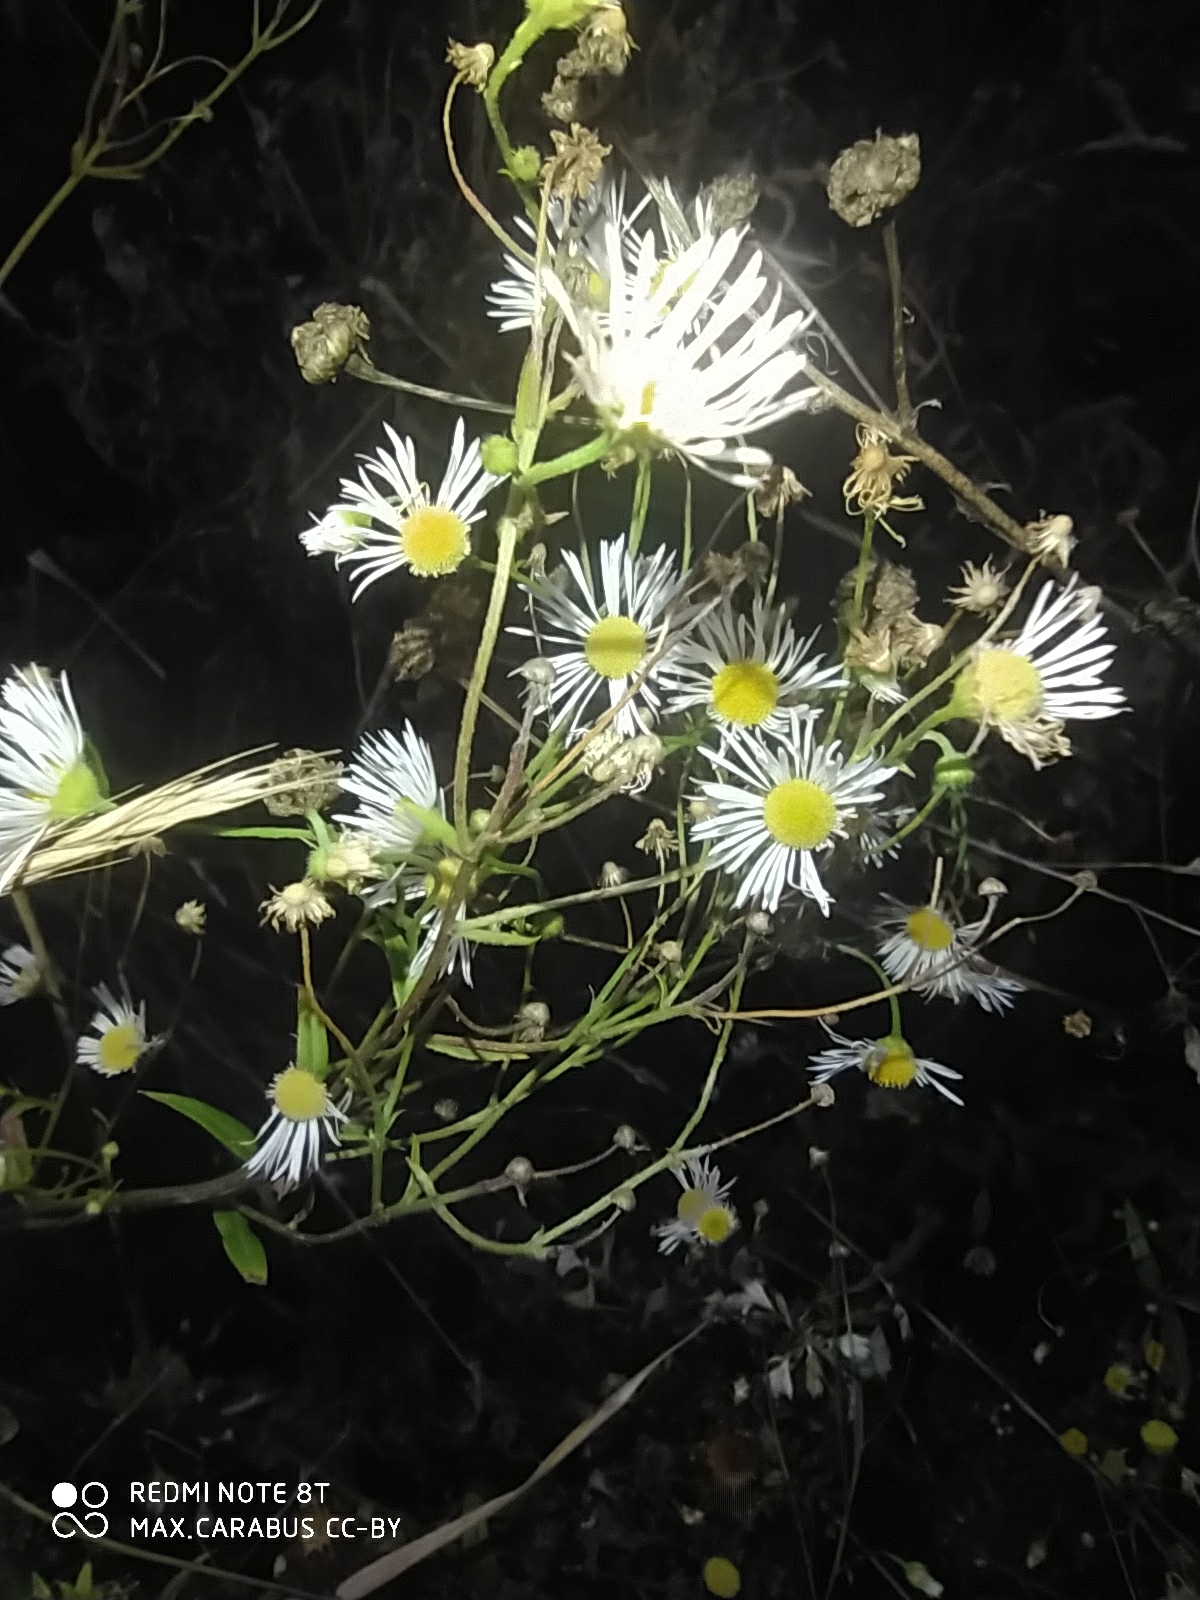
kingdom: Plantae
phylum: Tracheophyta
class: Magnoliopsida
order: Asterales
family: Asteraceae
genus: Erigeron
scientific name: Erigeron annuus
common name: Tall fleabane
